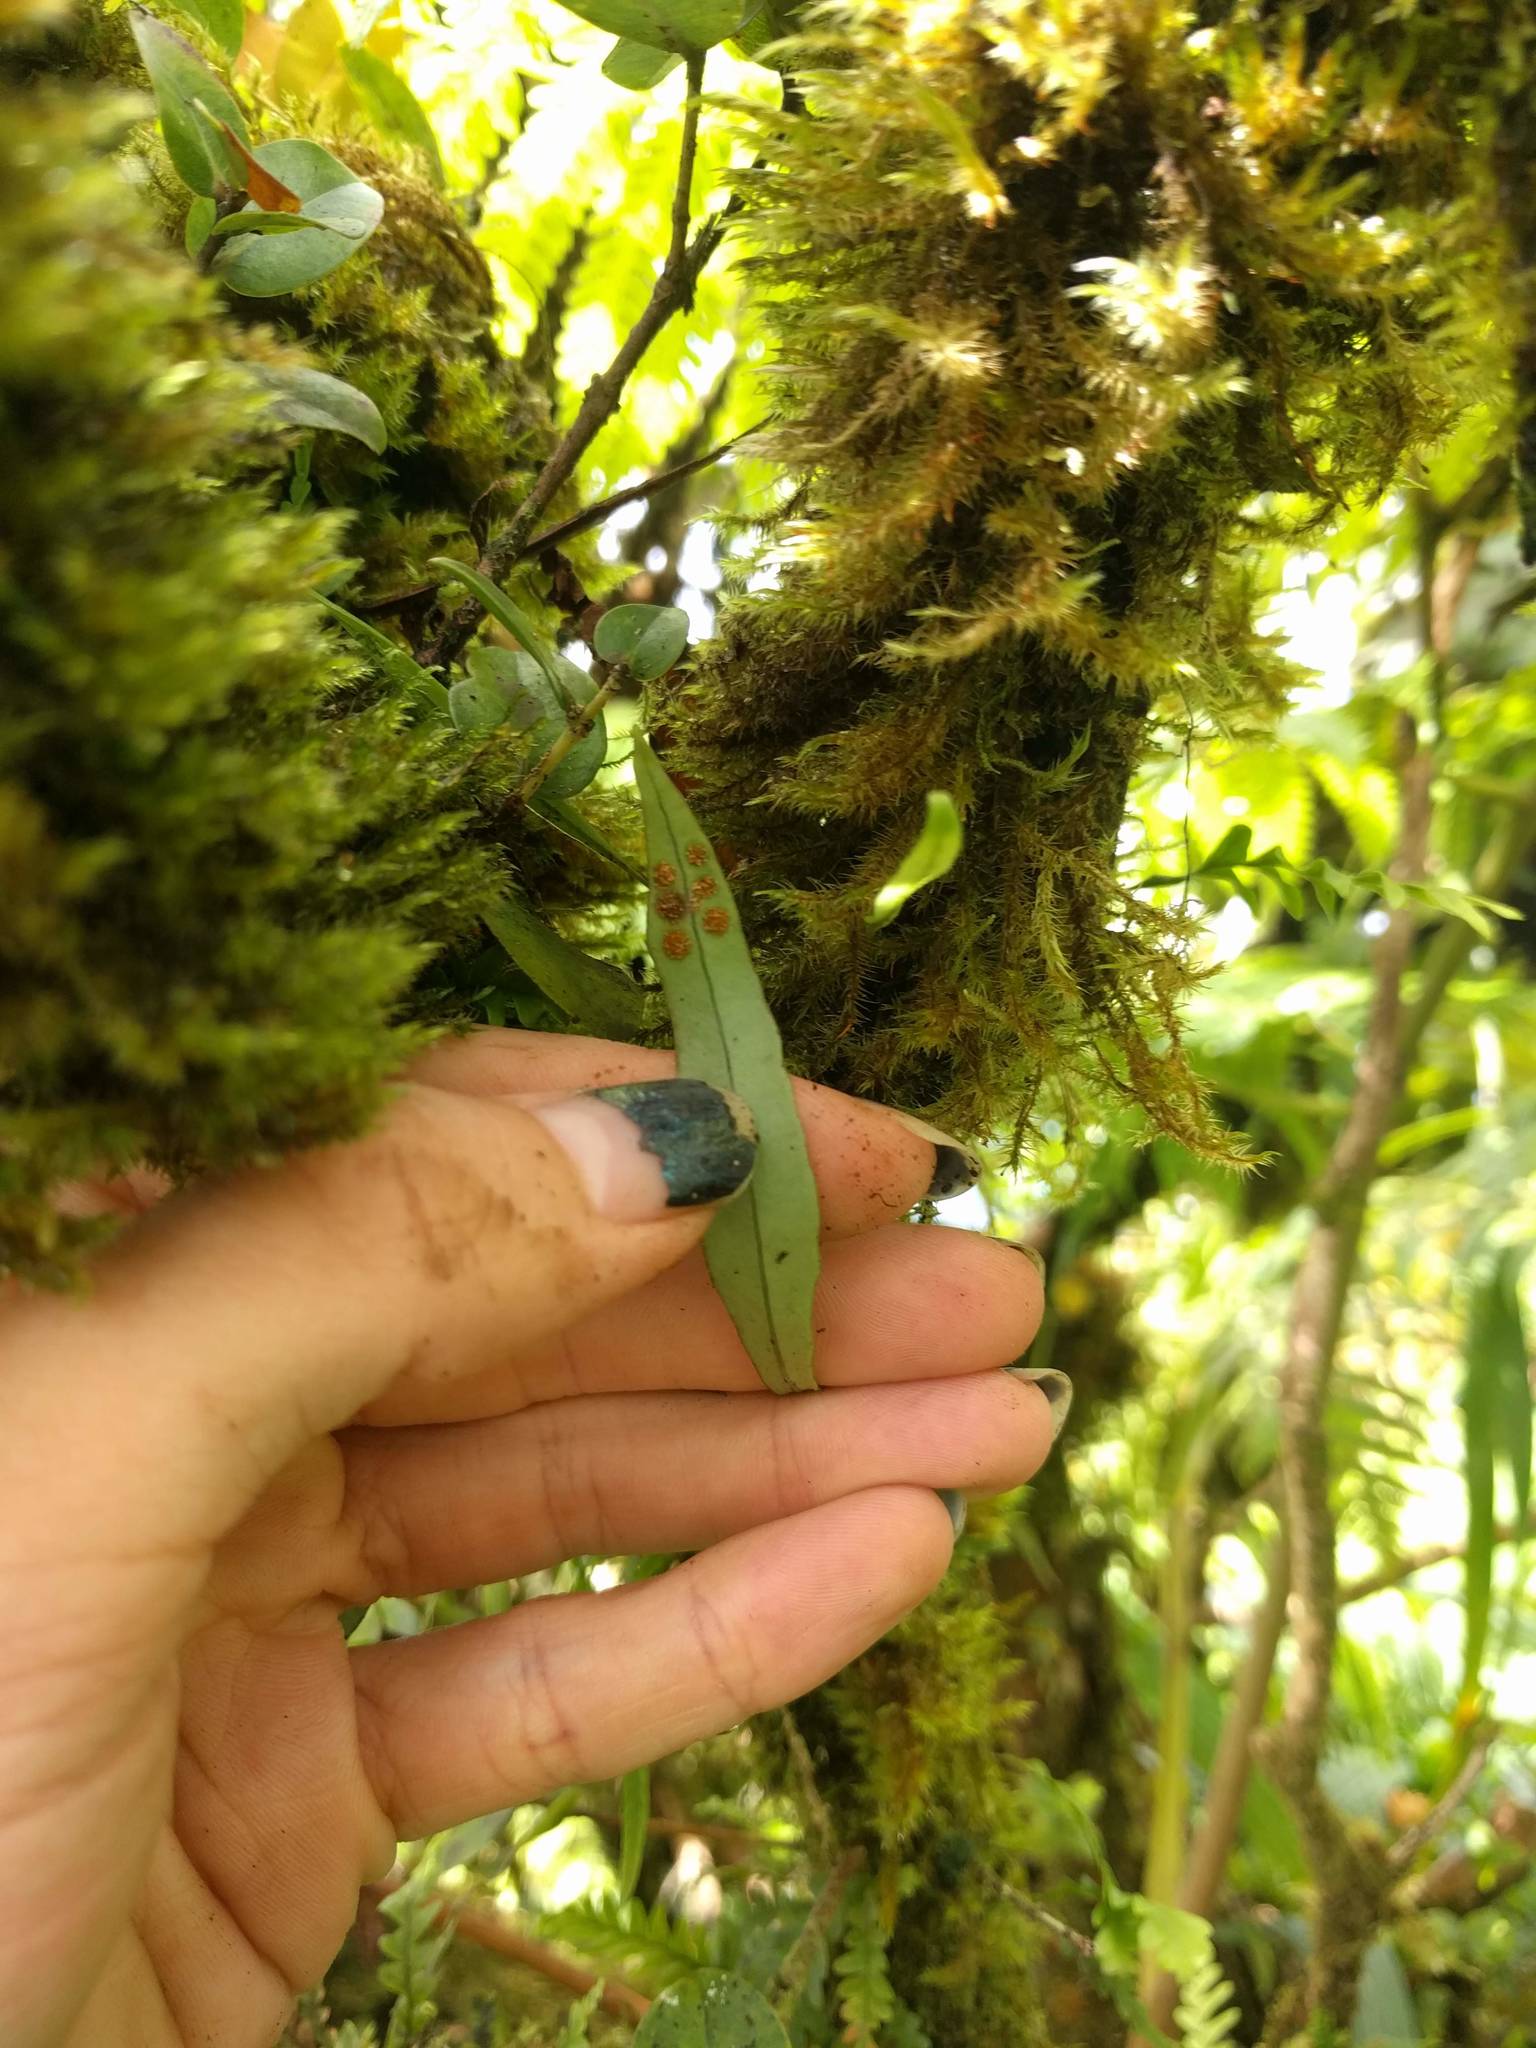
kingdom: Plantae
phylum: Tracheophyta
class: Polypodiopsida
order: Polypodiales
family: Polypodiaceae
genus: Lepisorus
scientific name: Lepisorus thunbergianus
